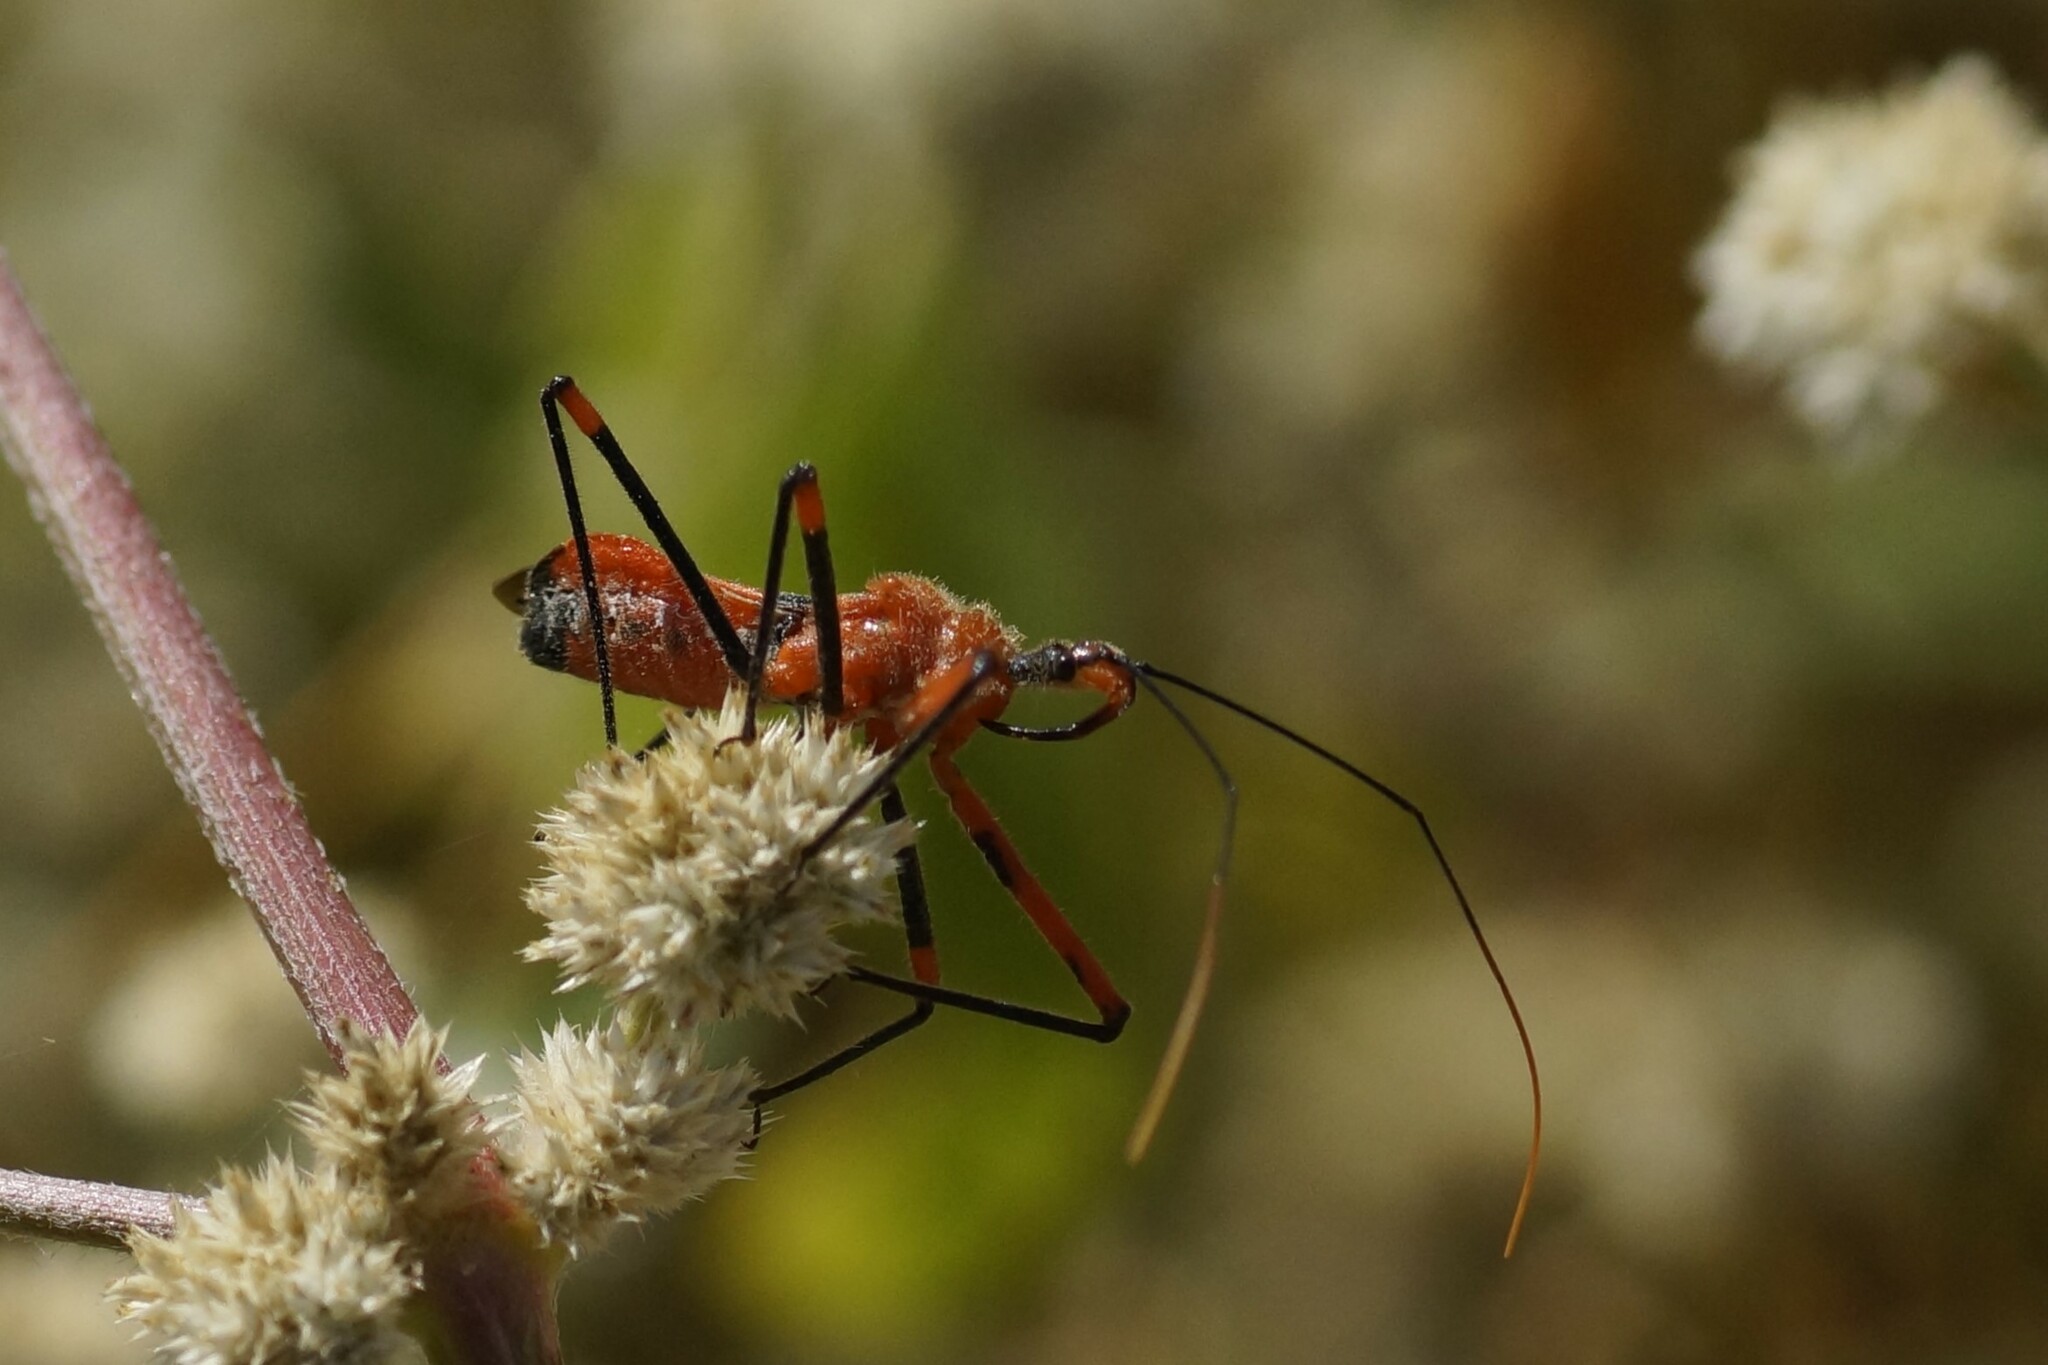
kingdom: Animalia
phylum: Arthropoda
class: Insecta
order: Hemiptera
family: Reduviidae
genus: Poecilobdallus
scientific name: Poecilobdallus formosus
